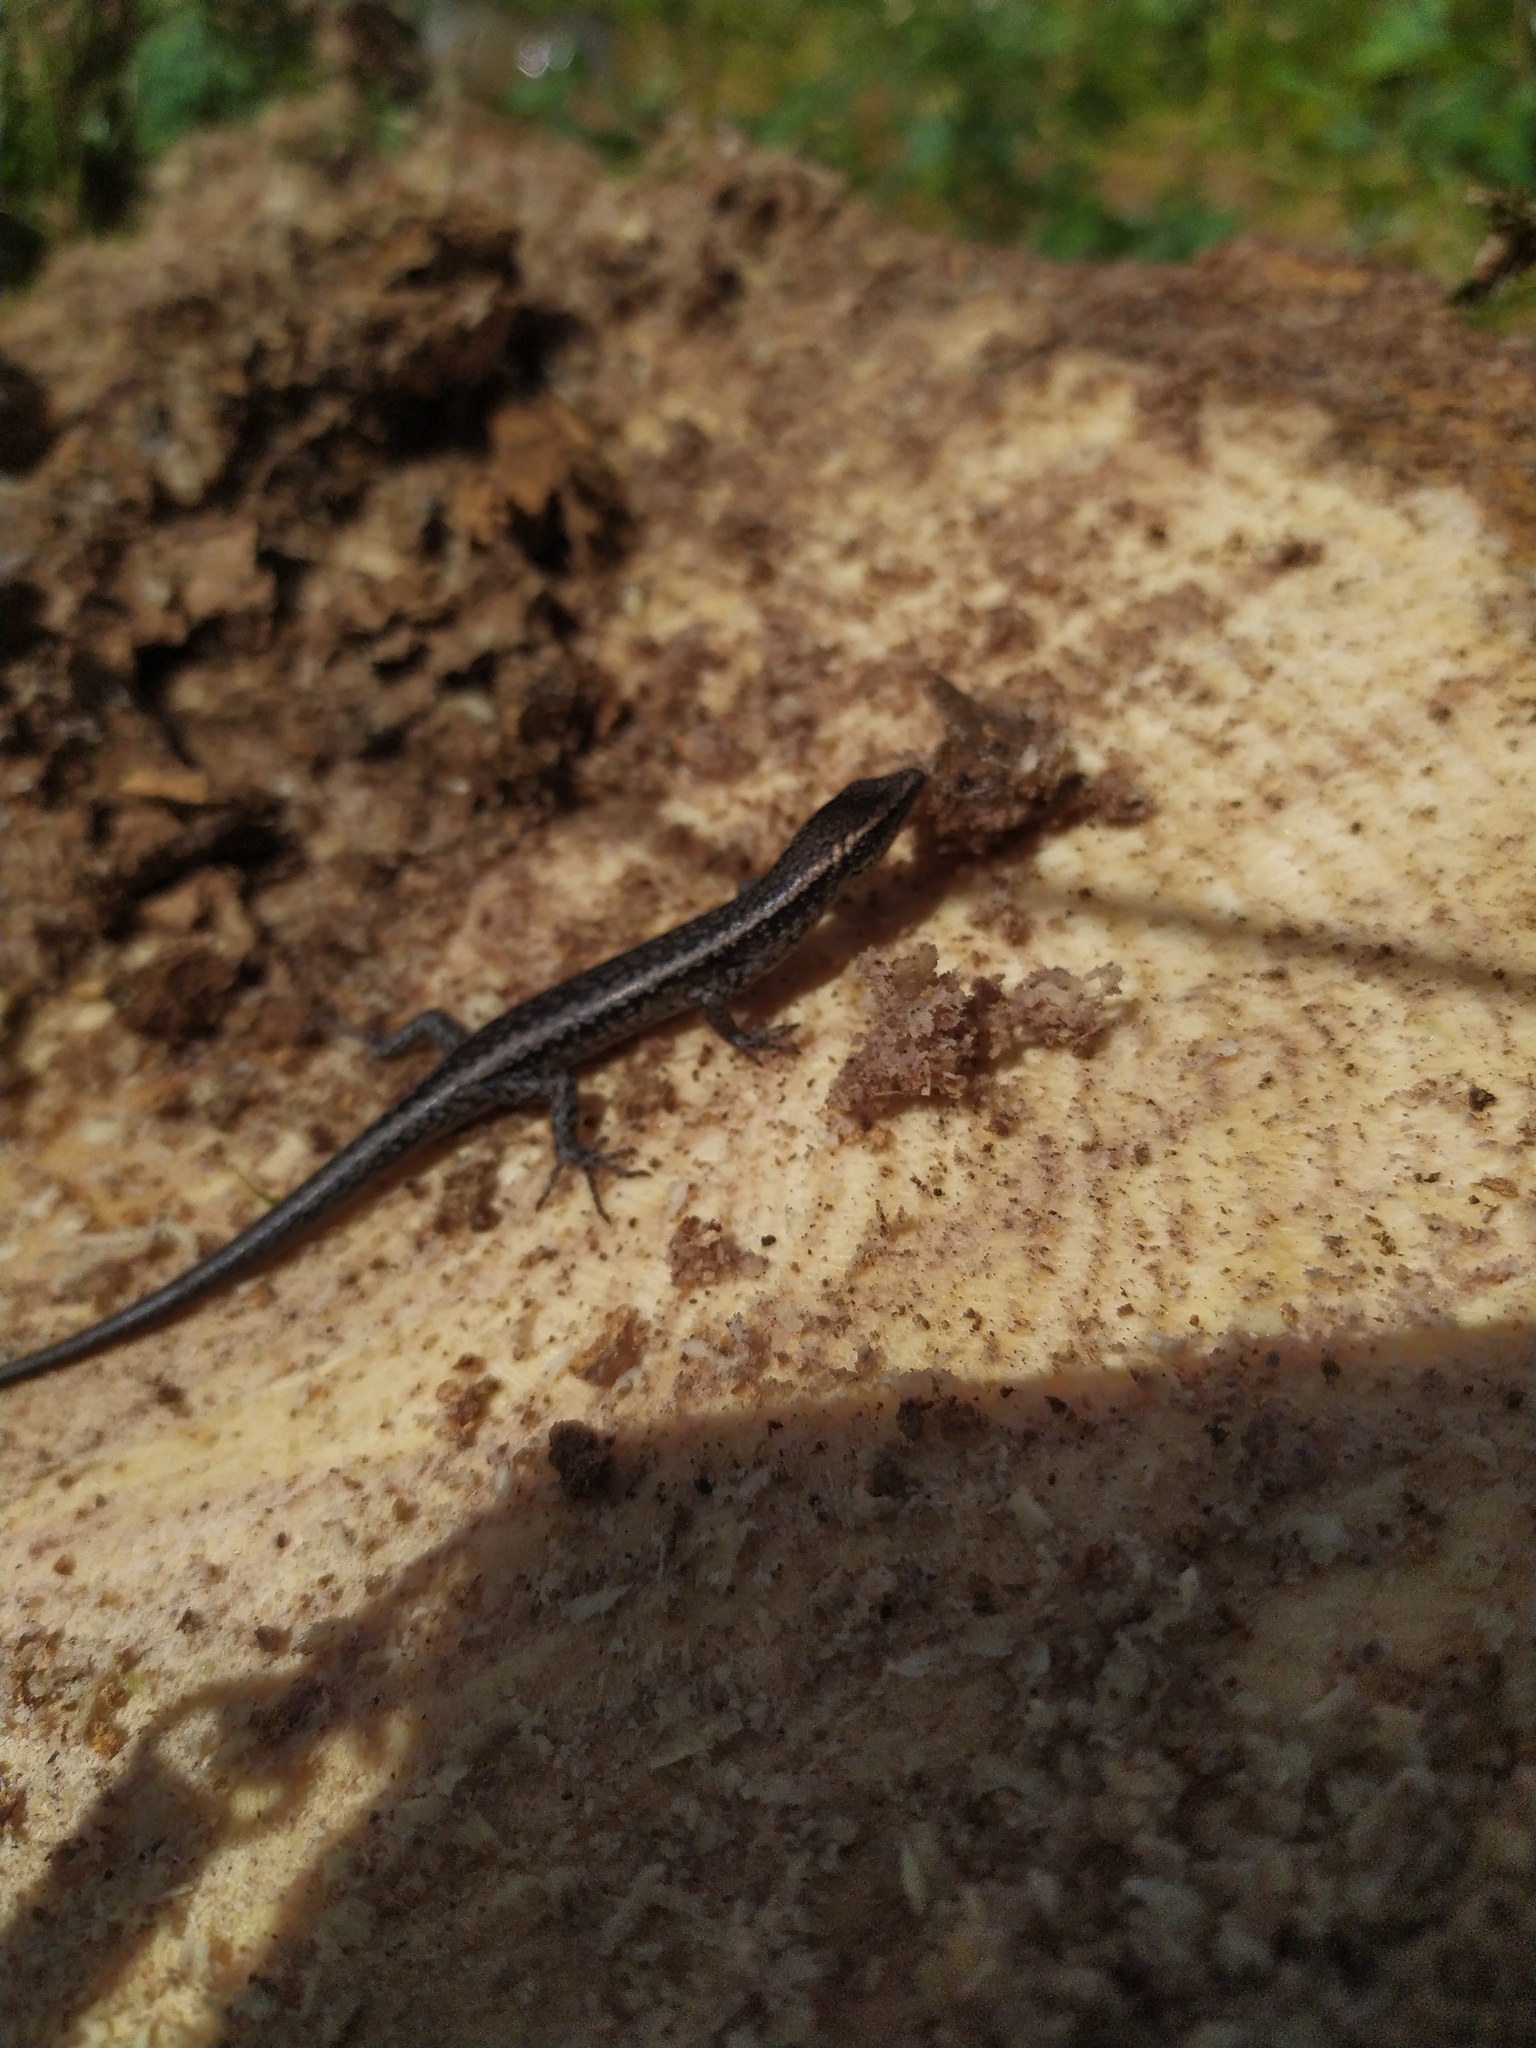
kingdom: Animalia
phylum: Chordata
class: Squamata
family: Scincidae
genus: Cryptoblepharus
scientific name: Cryptoblepharus buchananii
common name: Buchanan's snake-eyed skink
